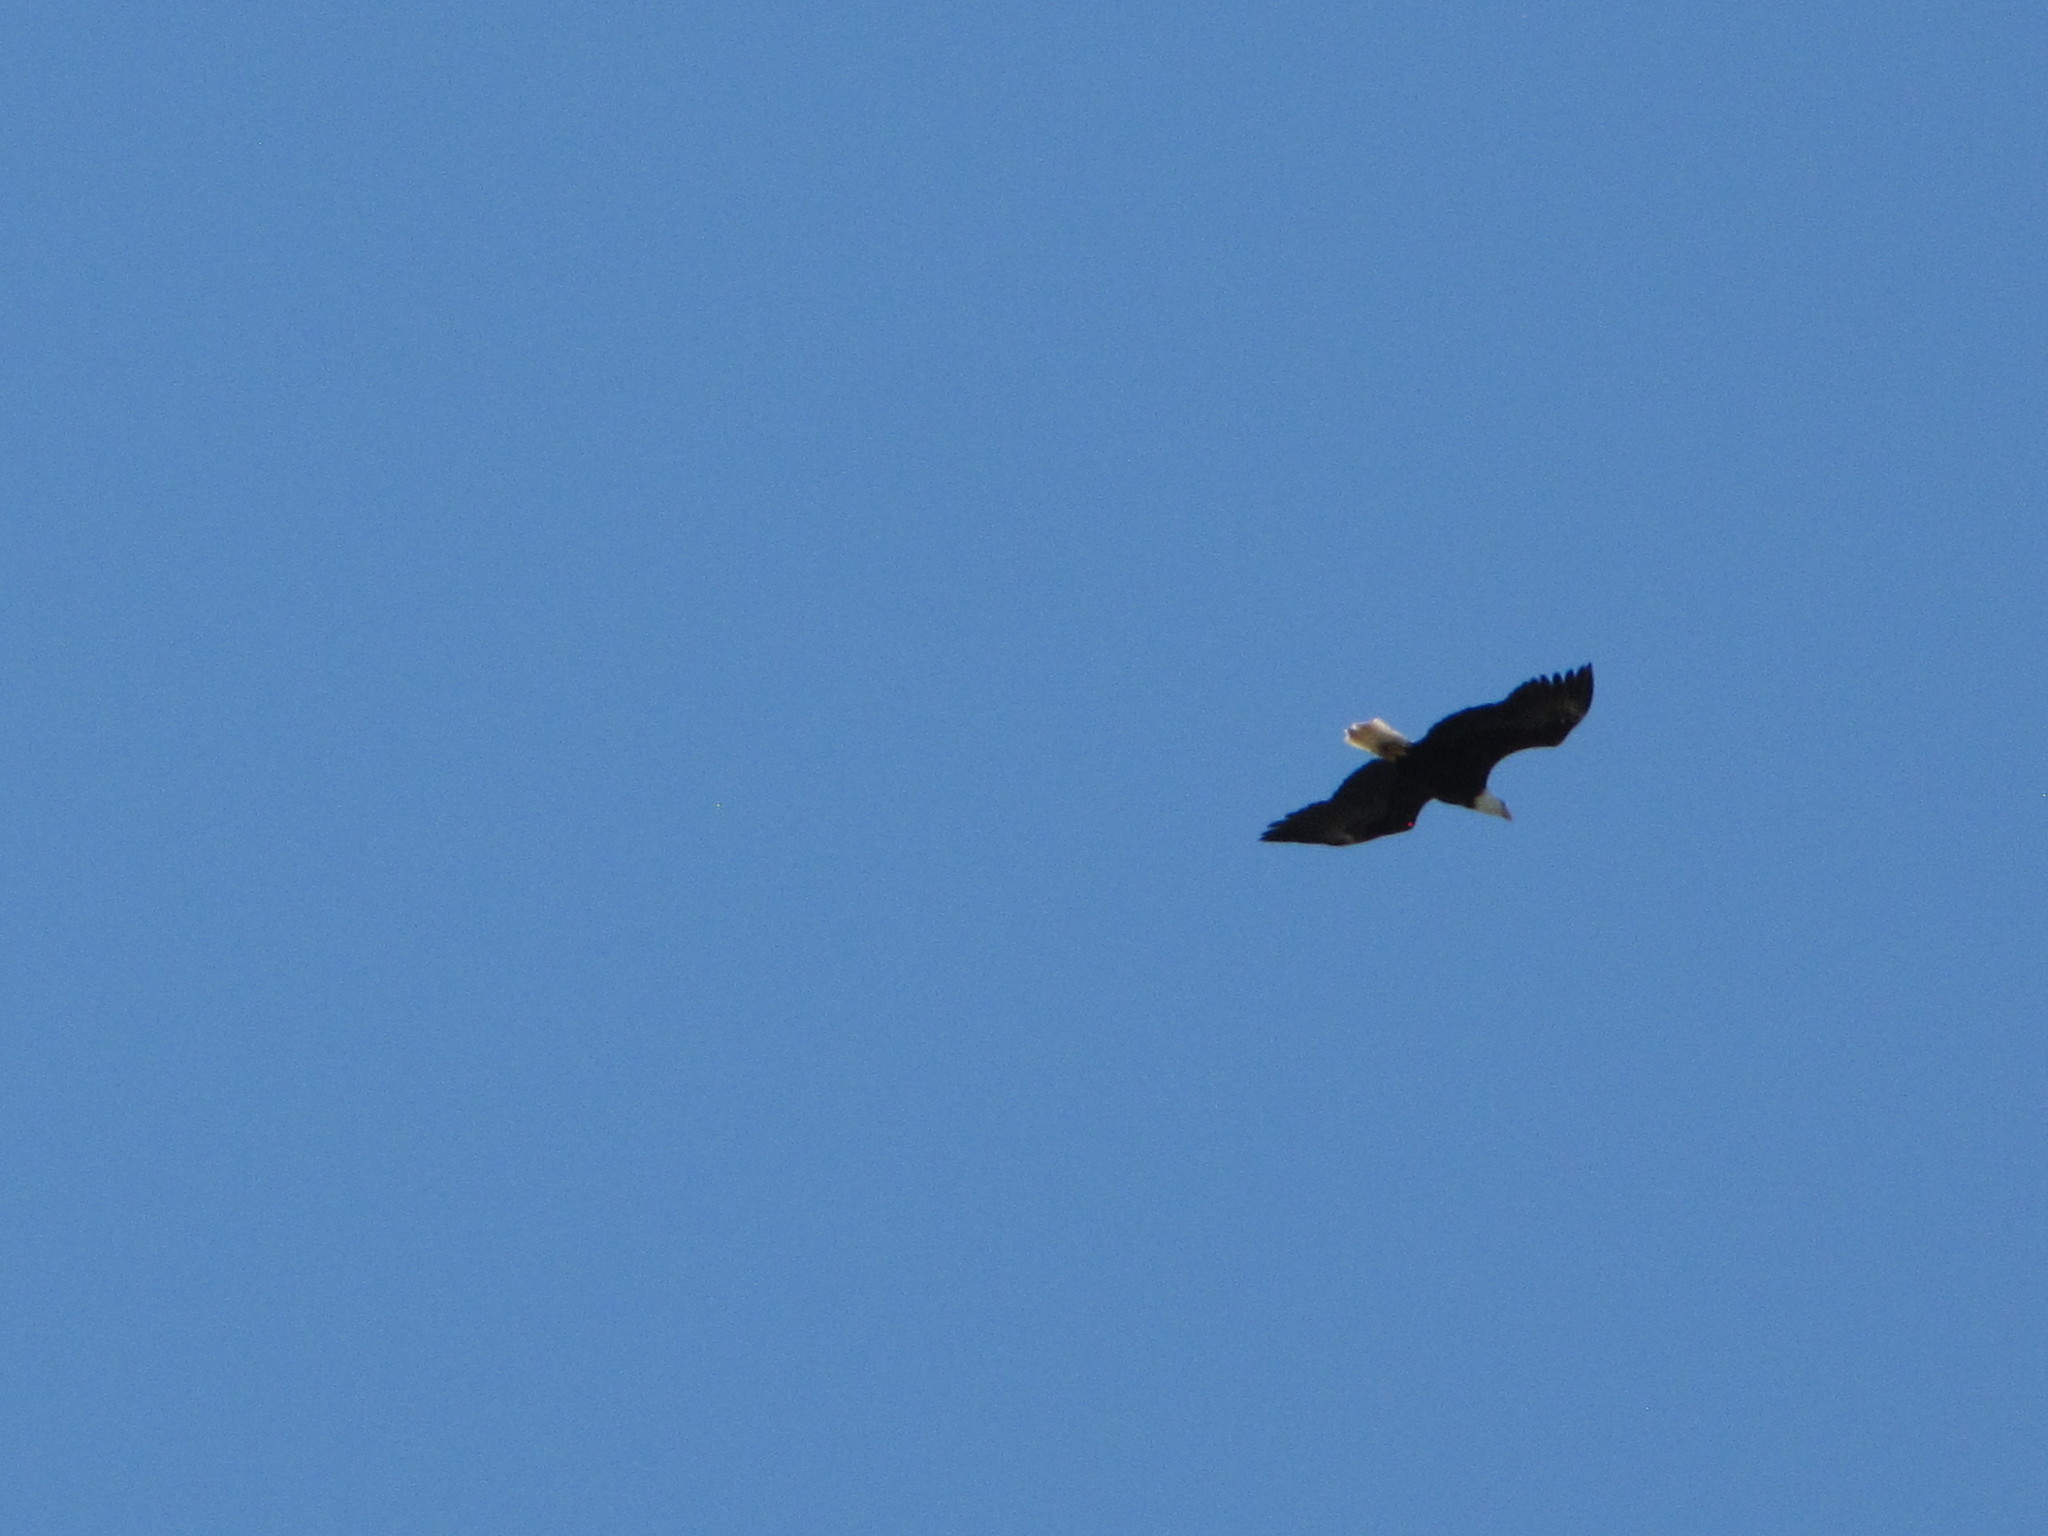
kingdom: Animalia
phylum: Chordata
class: Aves
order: Accipitriformes
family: Accipitridae
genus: Haliaeetus
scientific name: Haliaeetus leucocephalus
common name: Bald eagle
